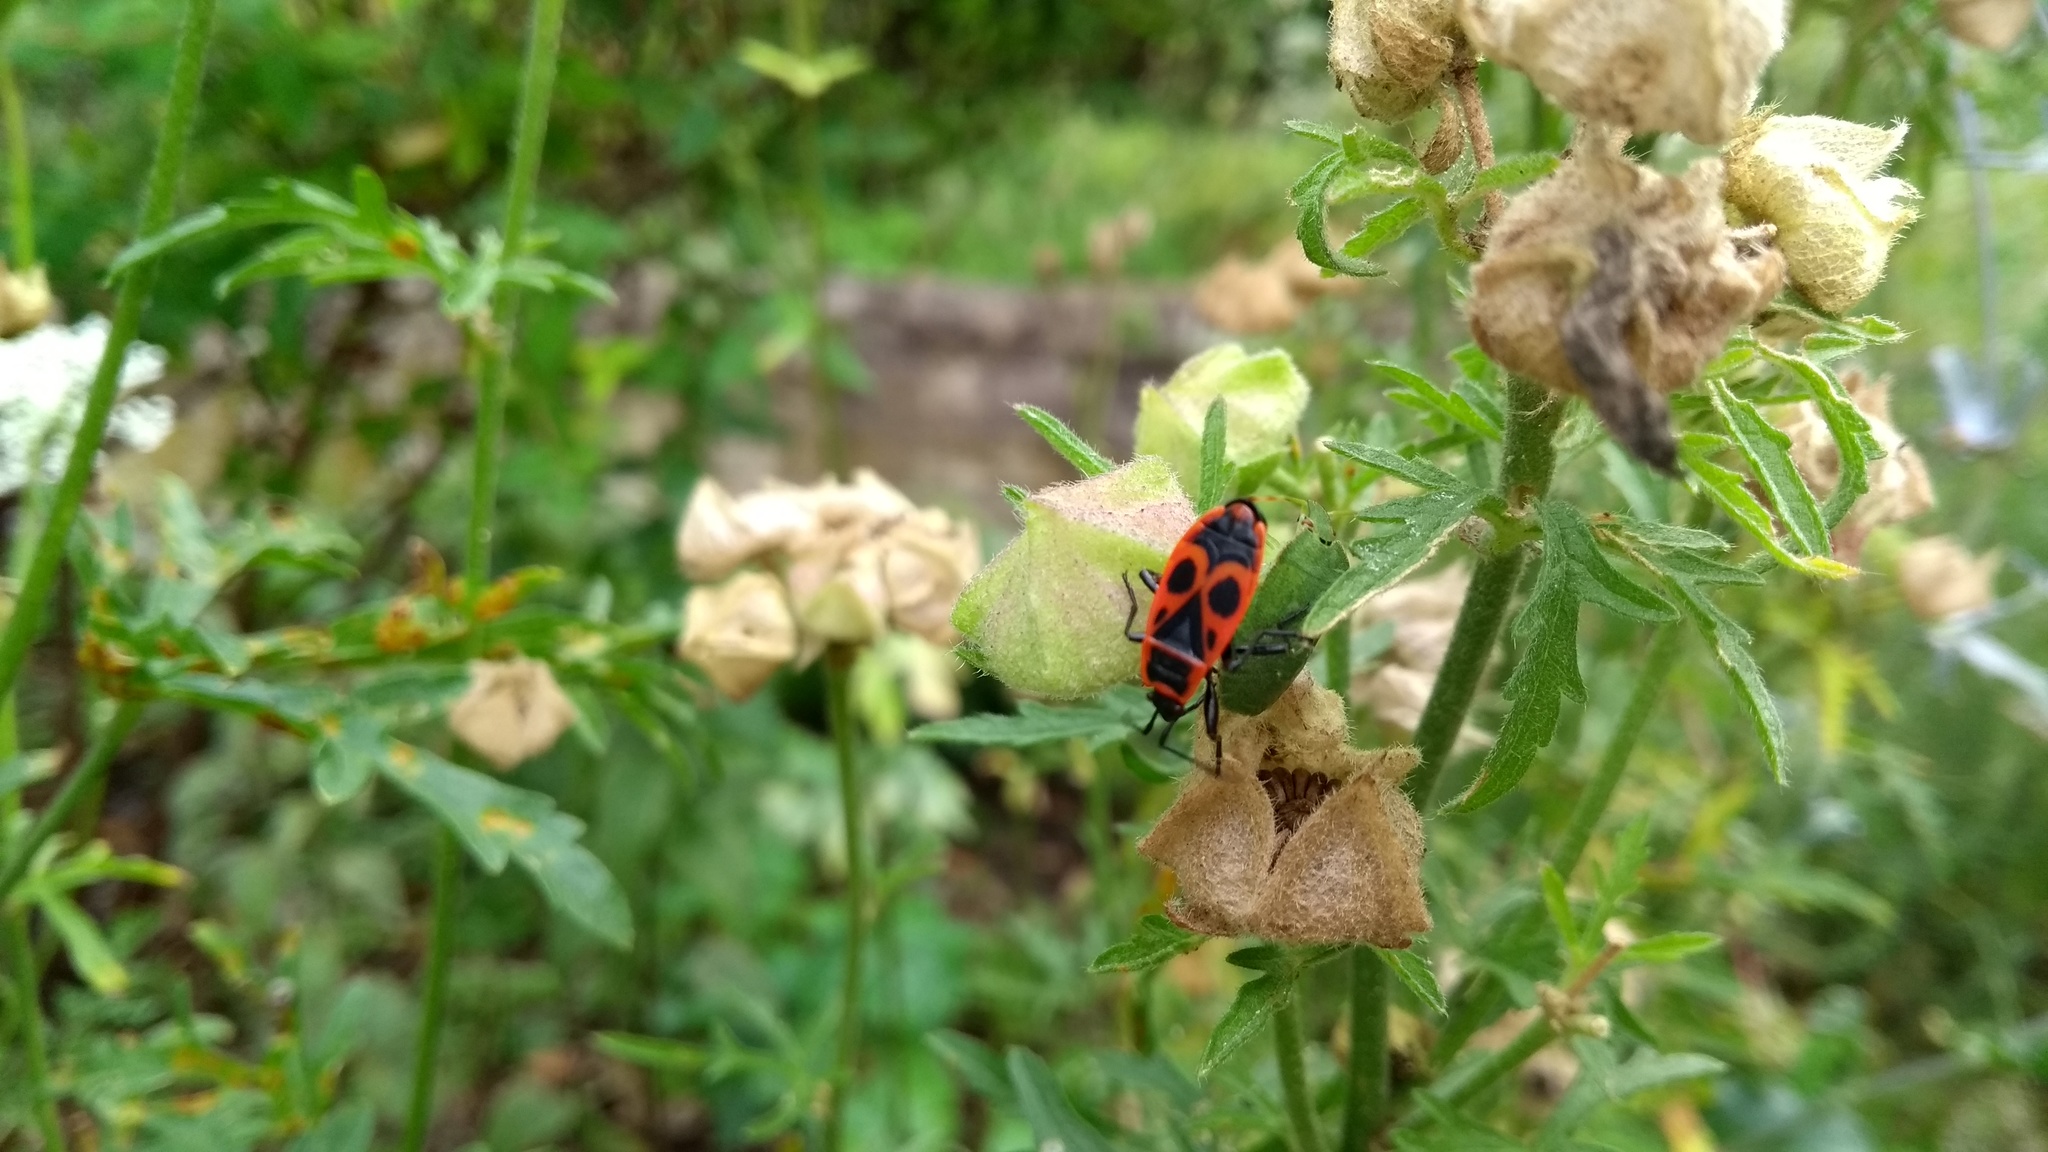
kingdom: Animalia
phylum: Arthropoda
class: Insecta
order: Hemiptera
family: Pyrrhocoridae
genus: Pyrrhocoris
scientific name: Pyrrhocoris apterus
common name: Firebug
